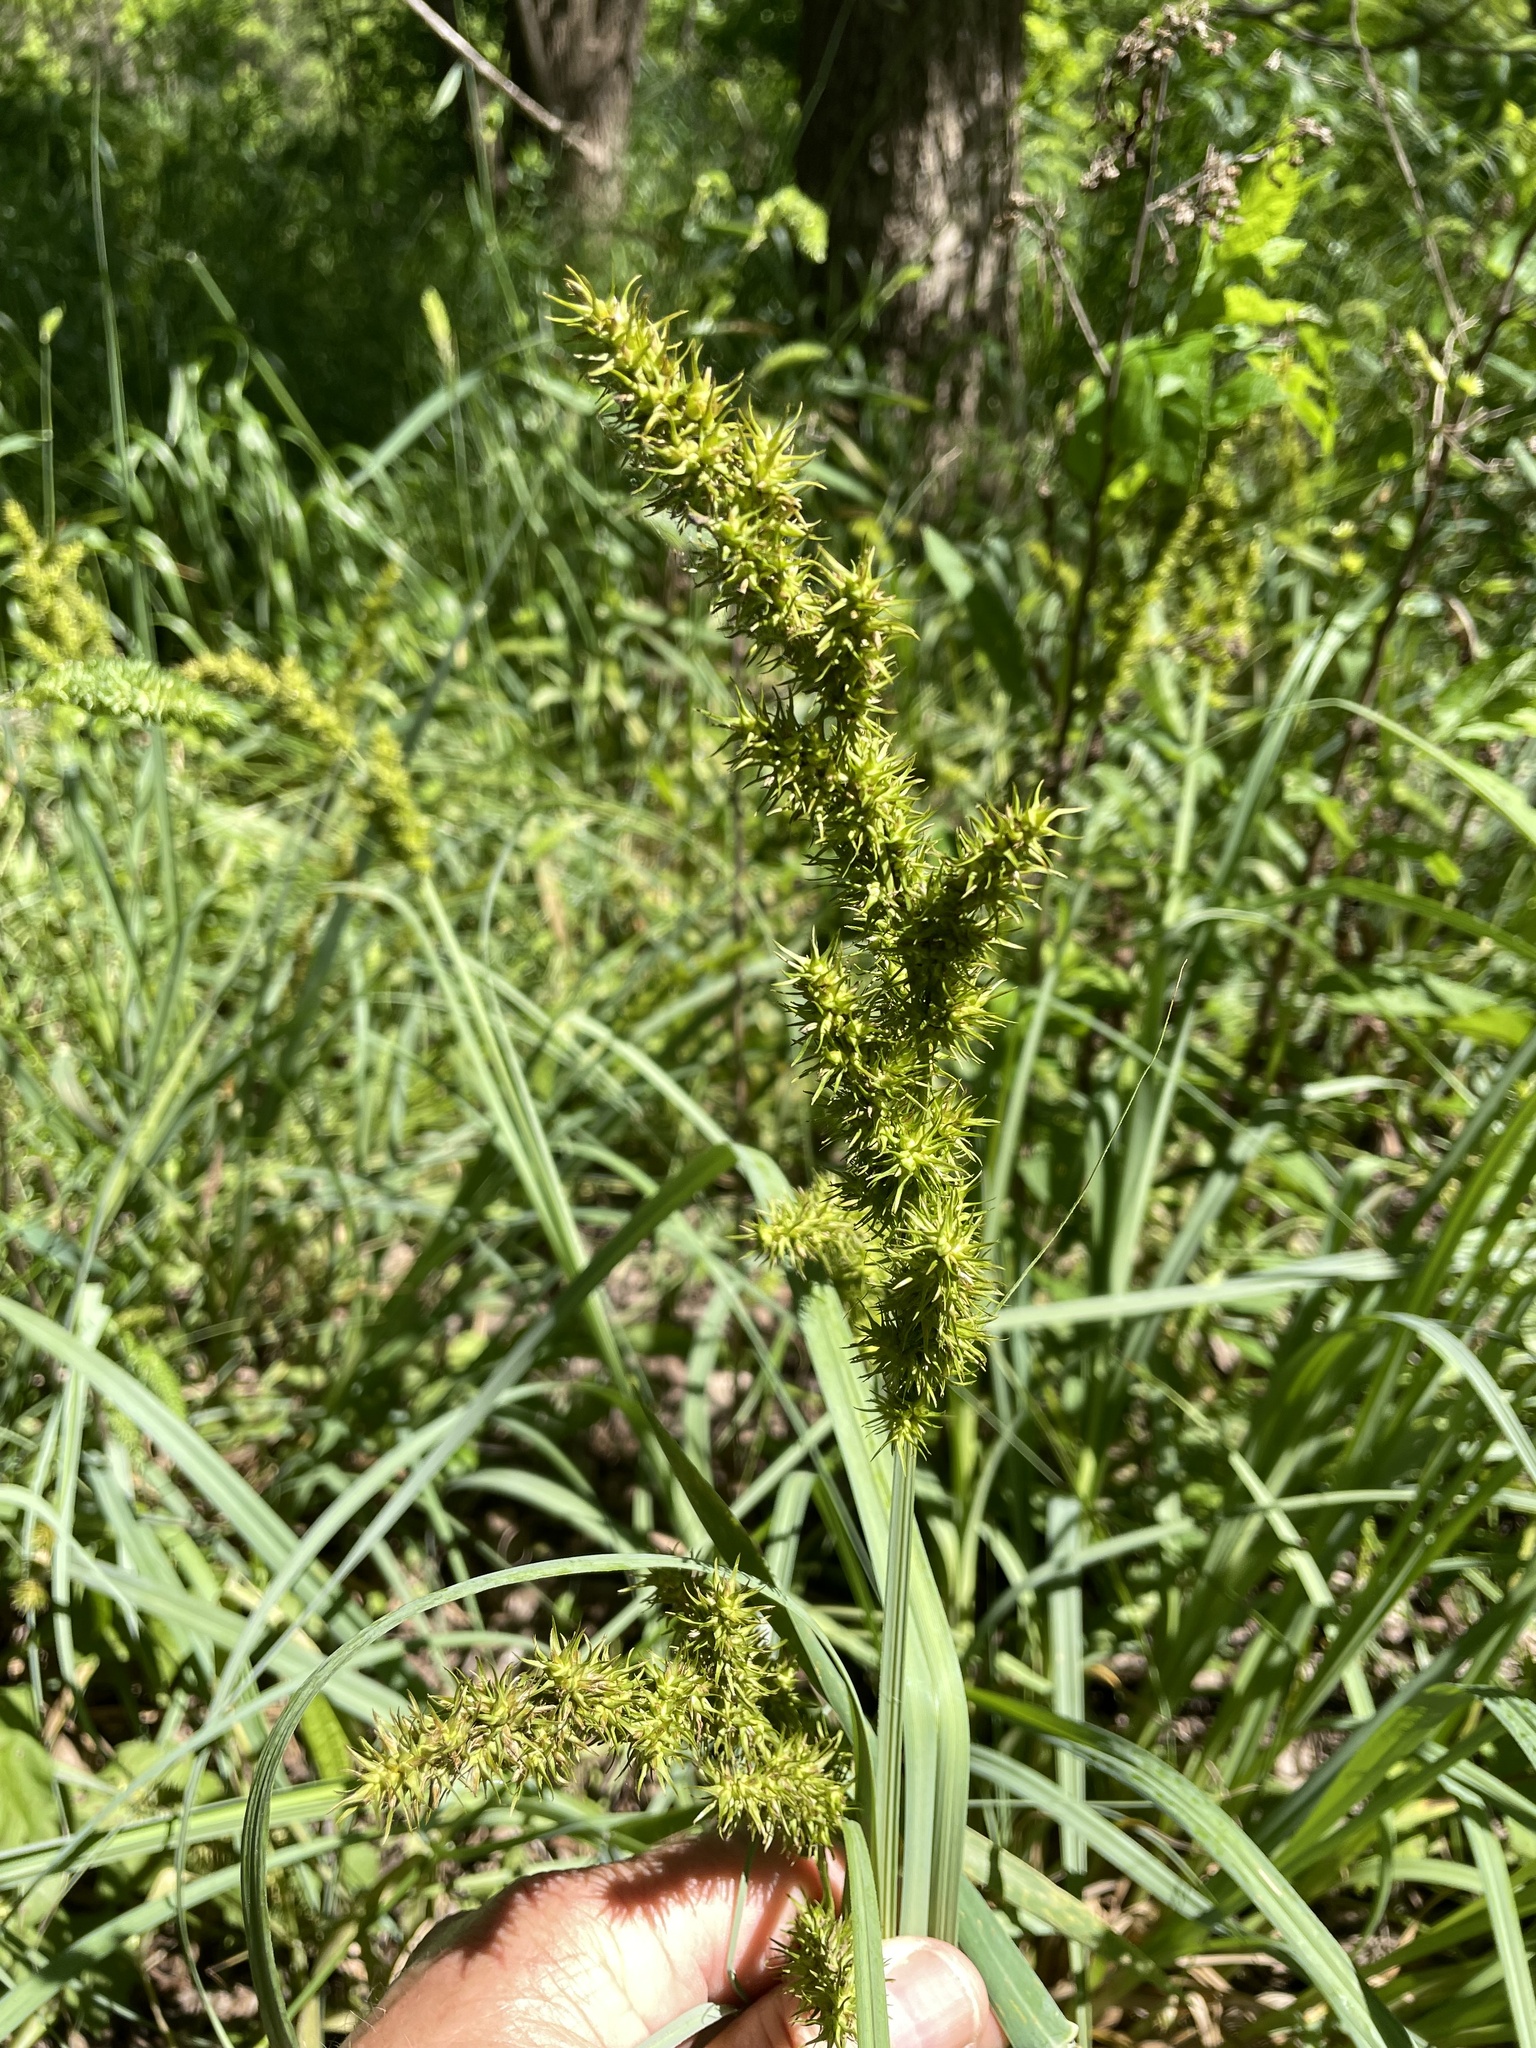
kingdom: Plantae
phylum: Tracheophyta
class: Liliopsida
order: Poales
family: Cyperaceae
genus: Carex
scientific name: Carex crus-corvi
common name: Crow-spur sedge
